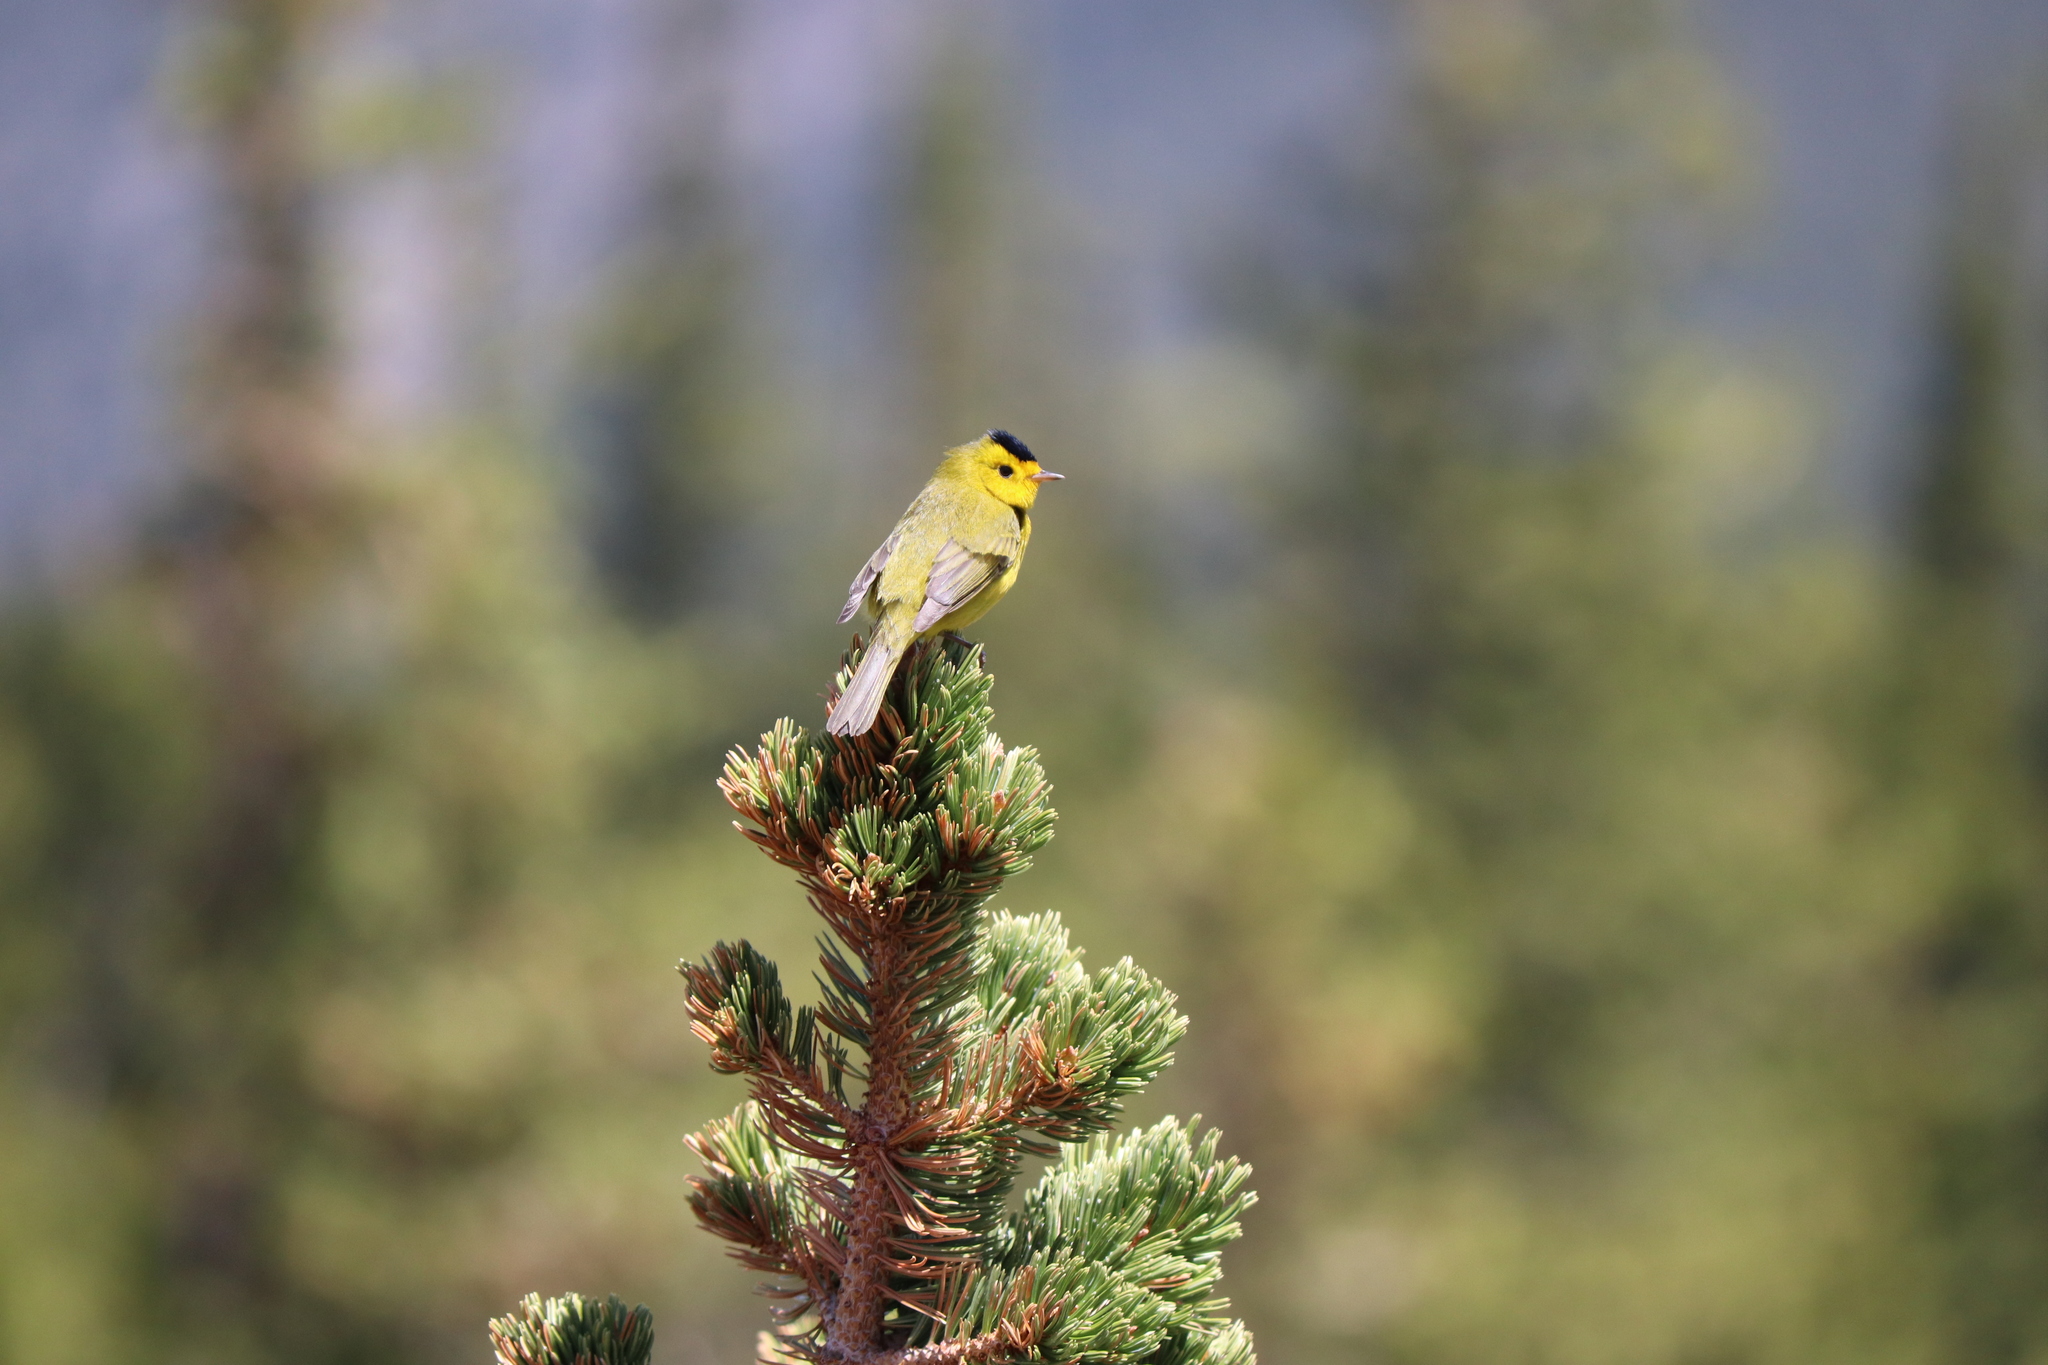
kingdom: Animalia
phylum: Chordata
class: Aves
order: Passeriformes
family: Parulidae
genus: Cardellina
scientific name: Cardellina pusilla
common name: Wilson's warbler
